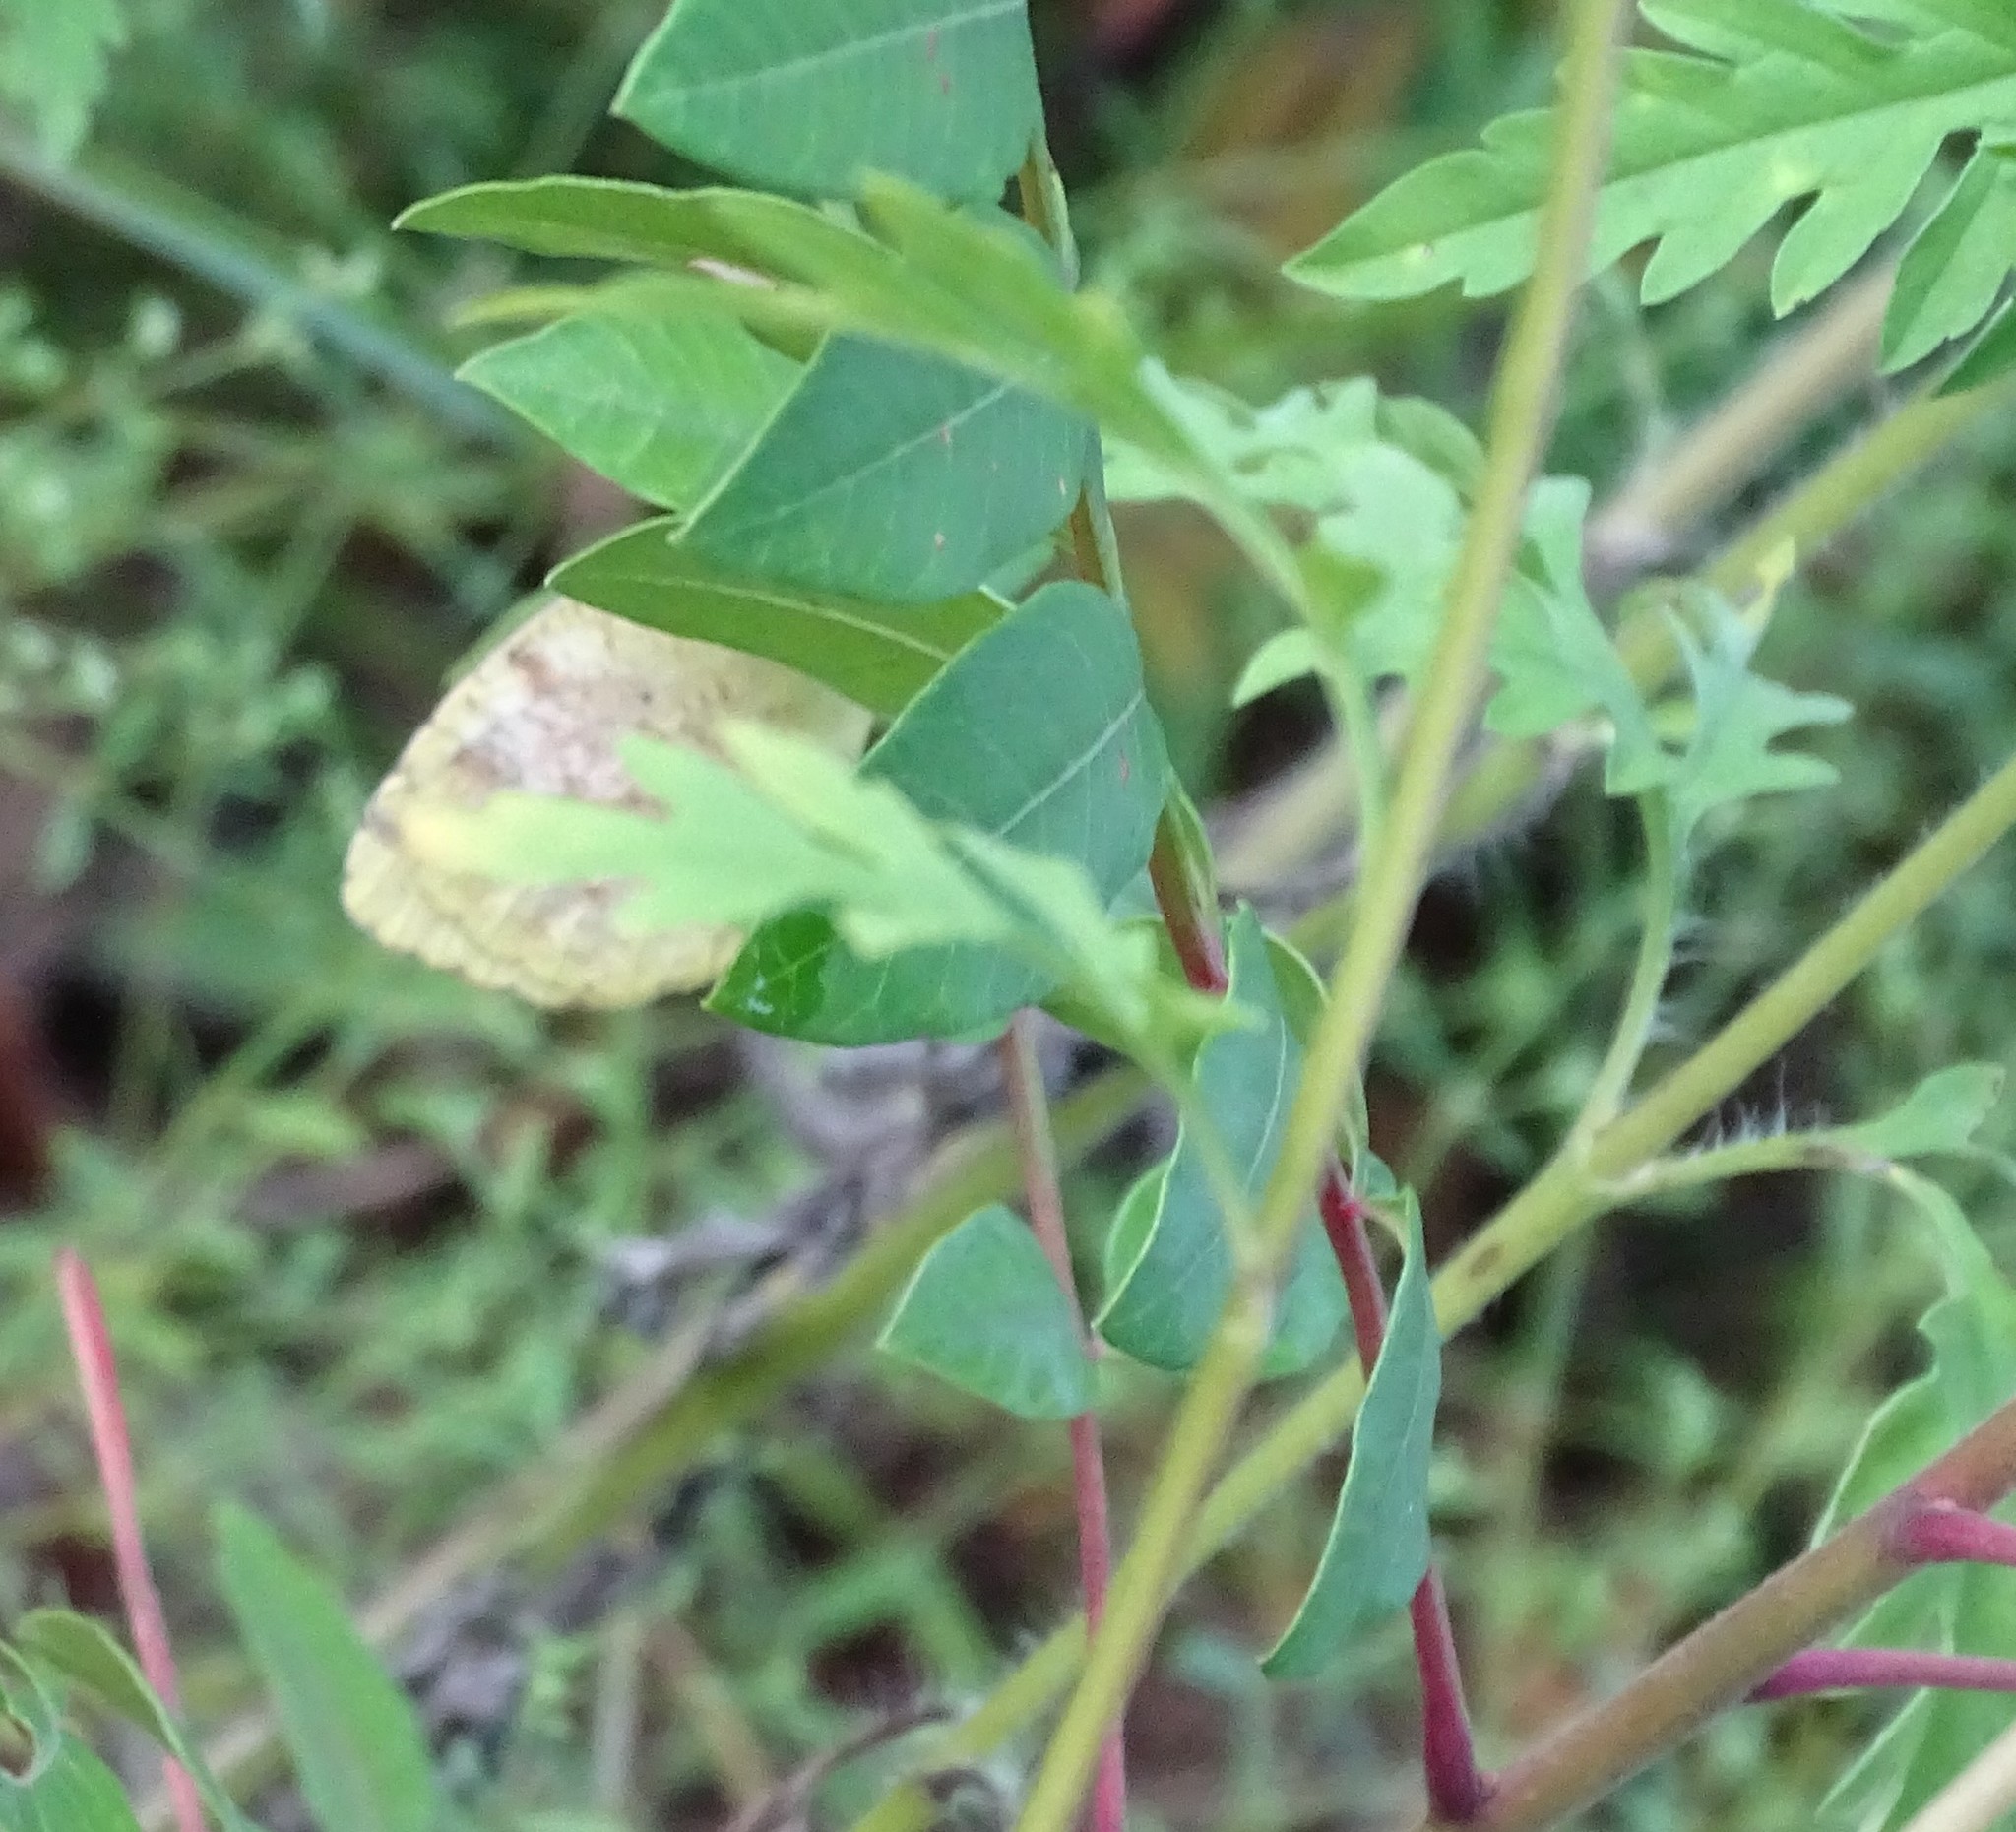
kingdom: Animalia
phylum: Arthropoda
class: Insecta
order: Lepidoptera
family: Pieridae
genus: Abaeis
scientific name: Abaeis nicippe
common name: Sleepy orange
